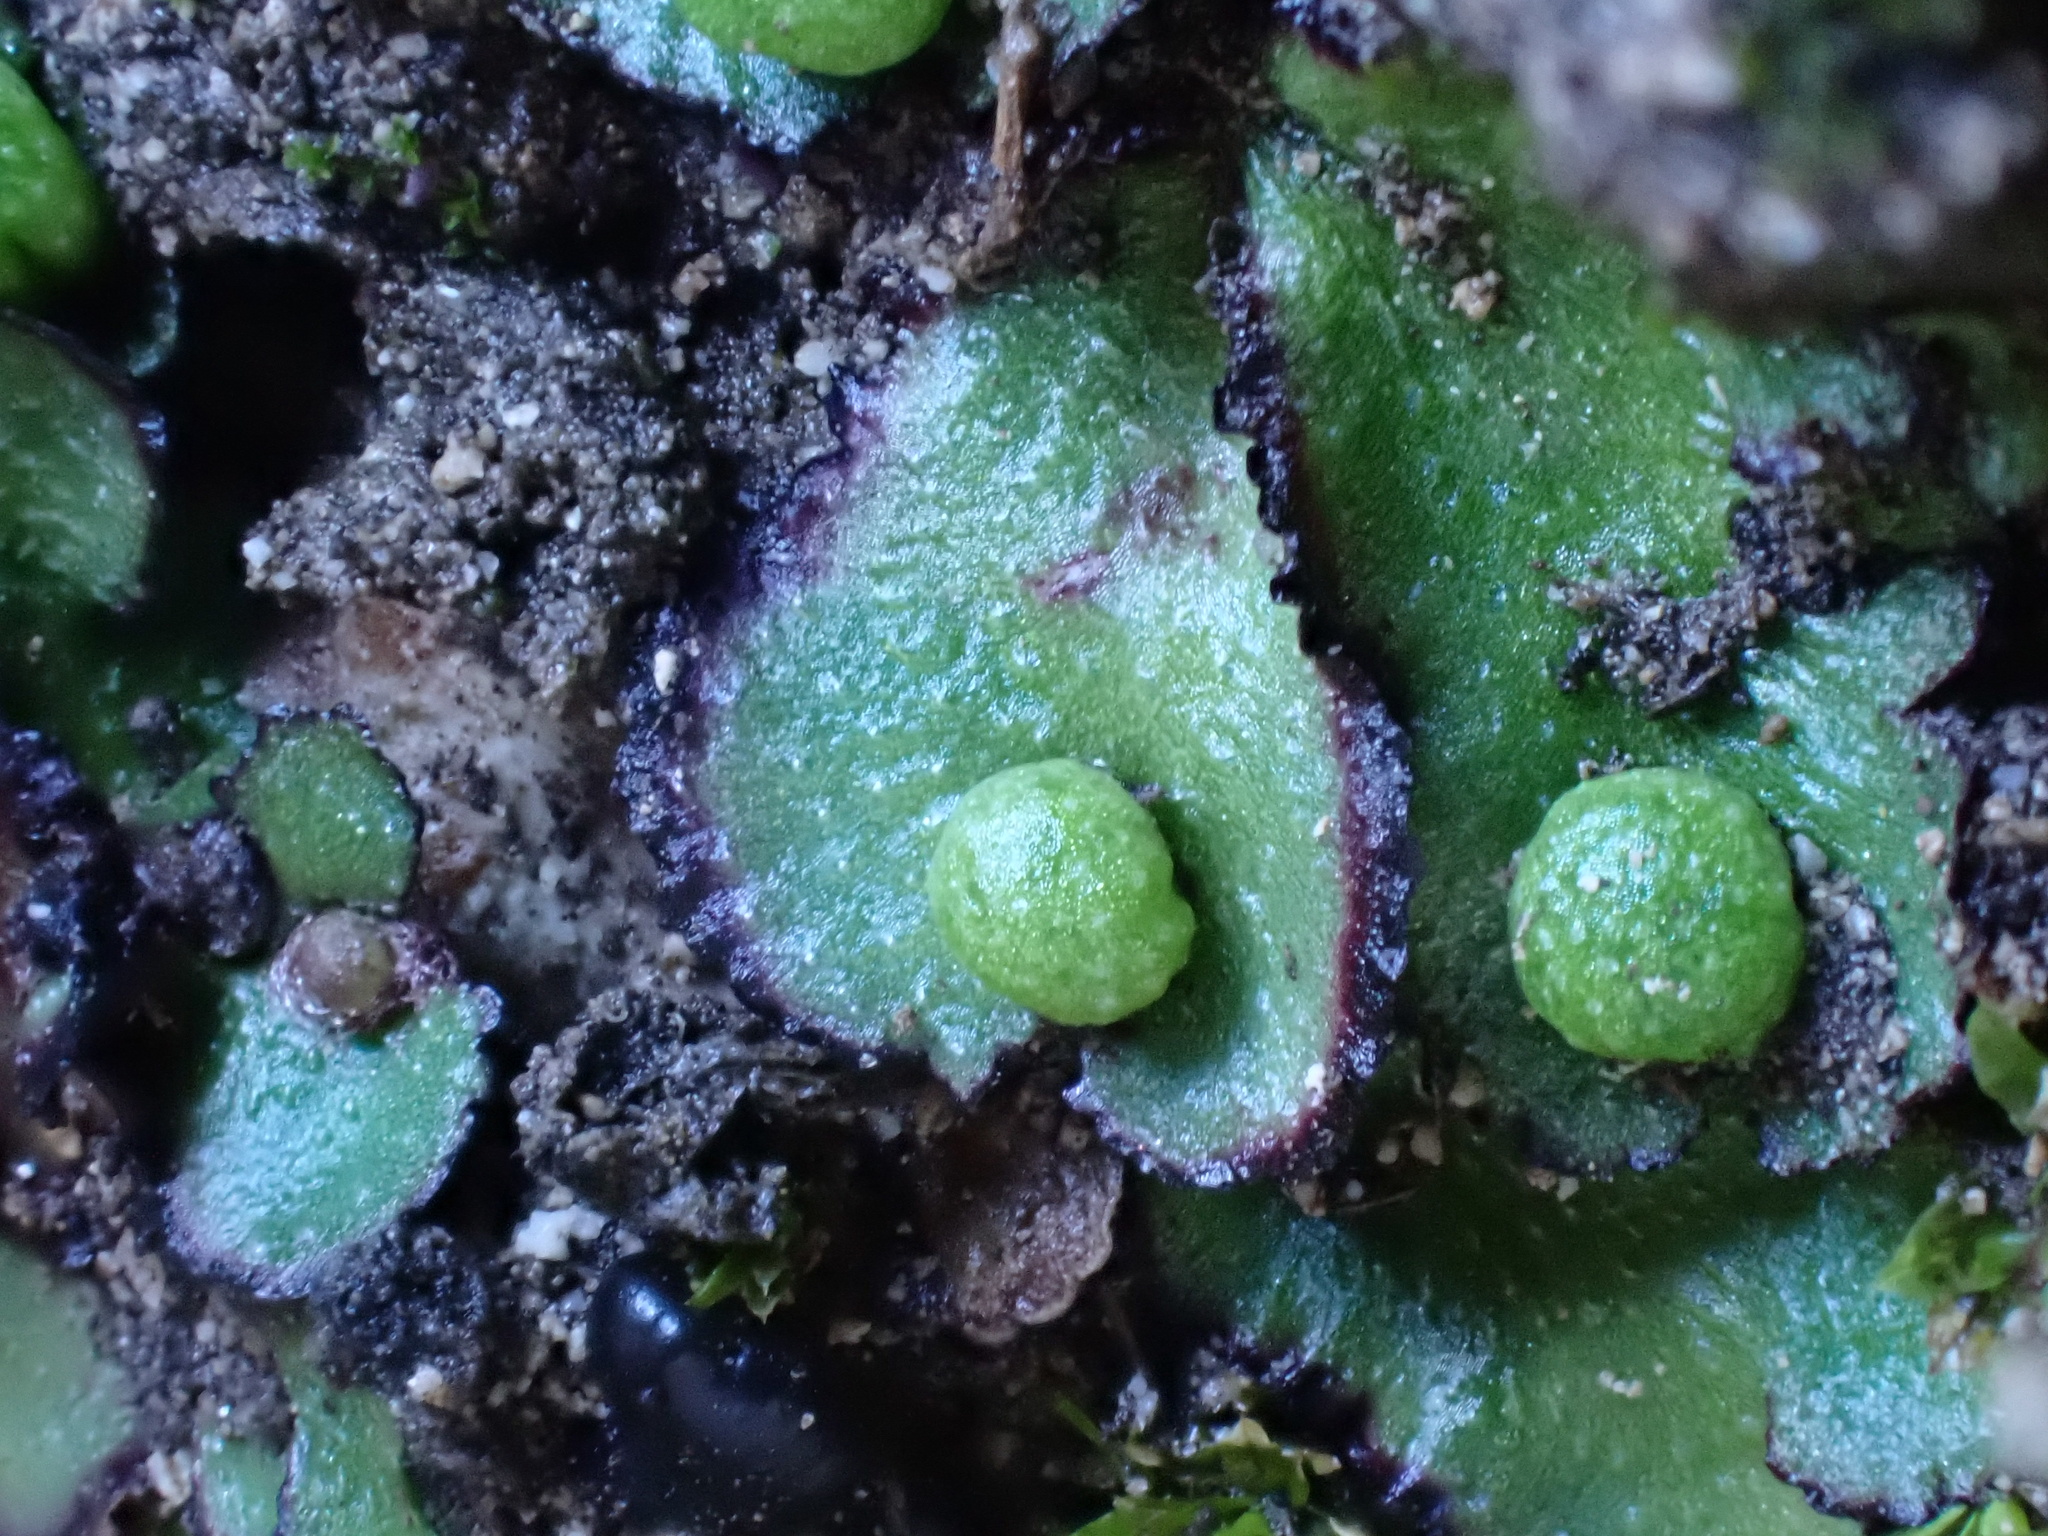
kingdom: Plantae
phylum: Marchantiophyta
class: Marchantiopsida
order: Marchantiales
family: Aytoniaceae
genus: Reboulia
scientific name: Reboulia hemisphaerica
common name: Purple-margined liverwort
